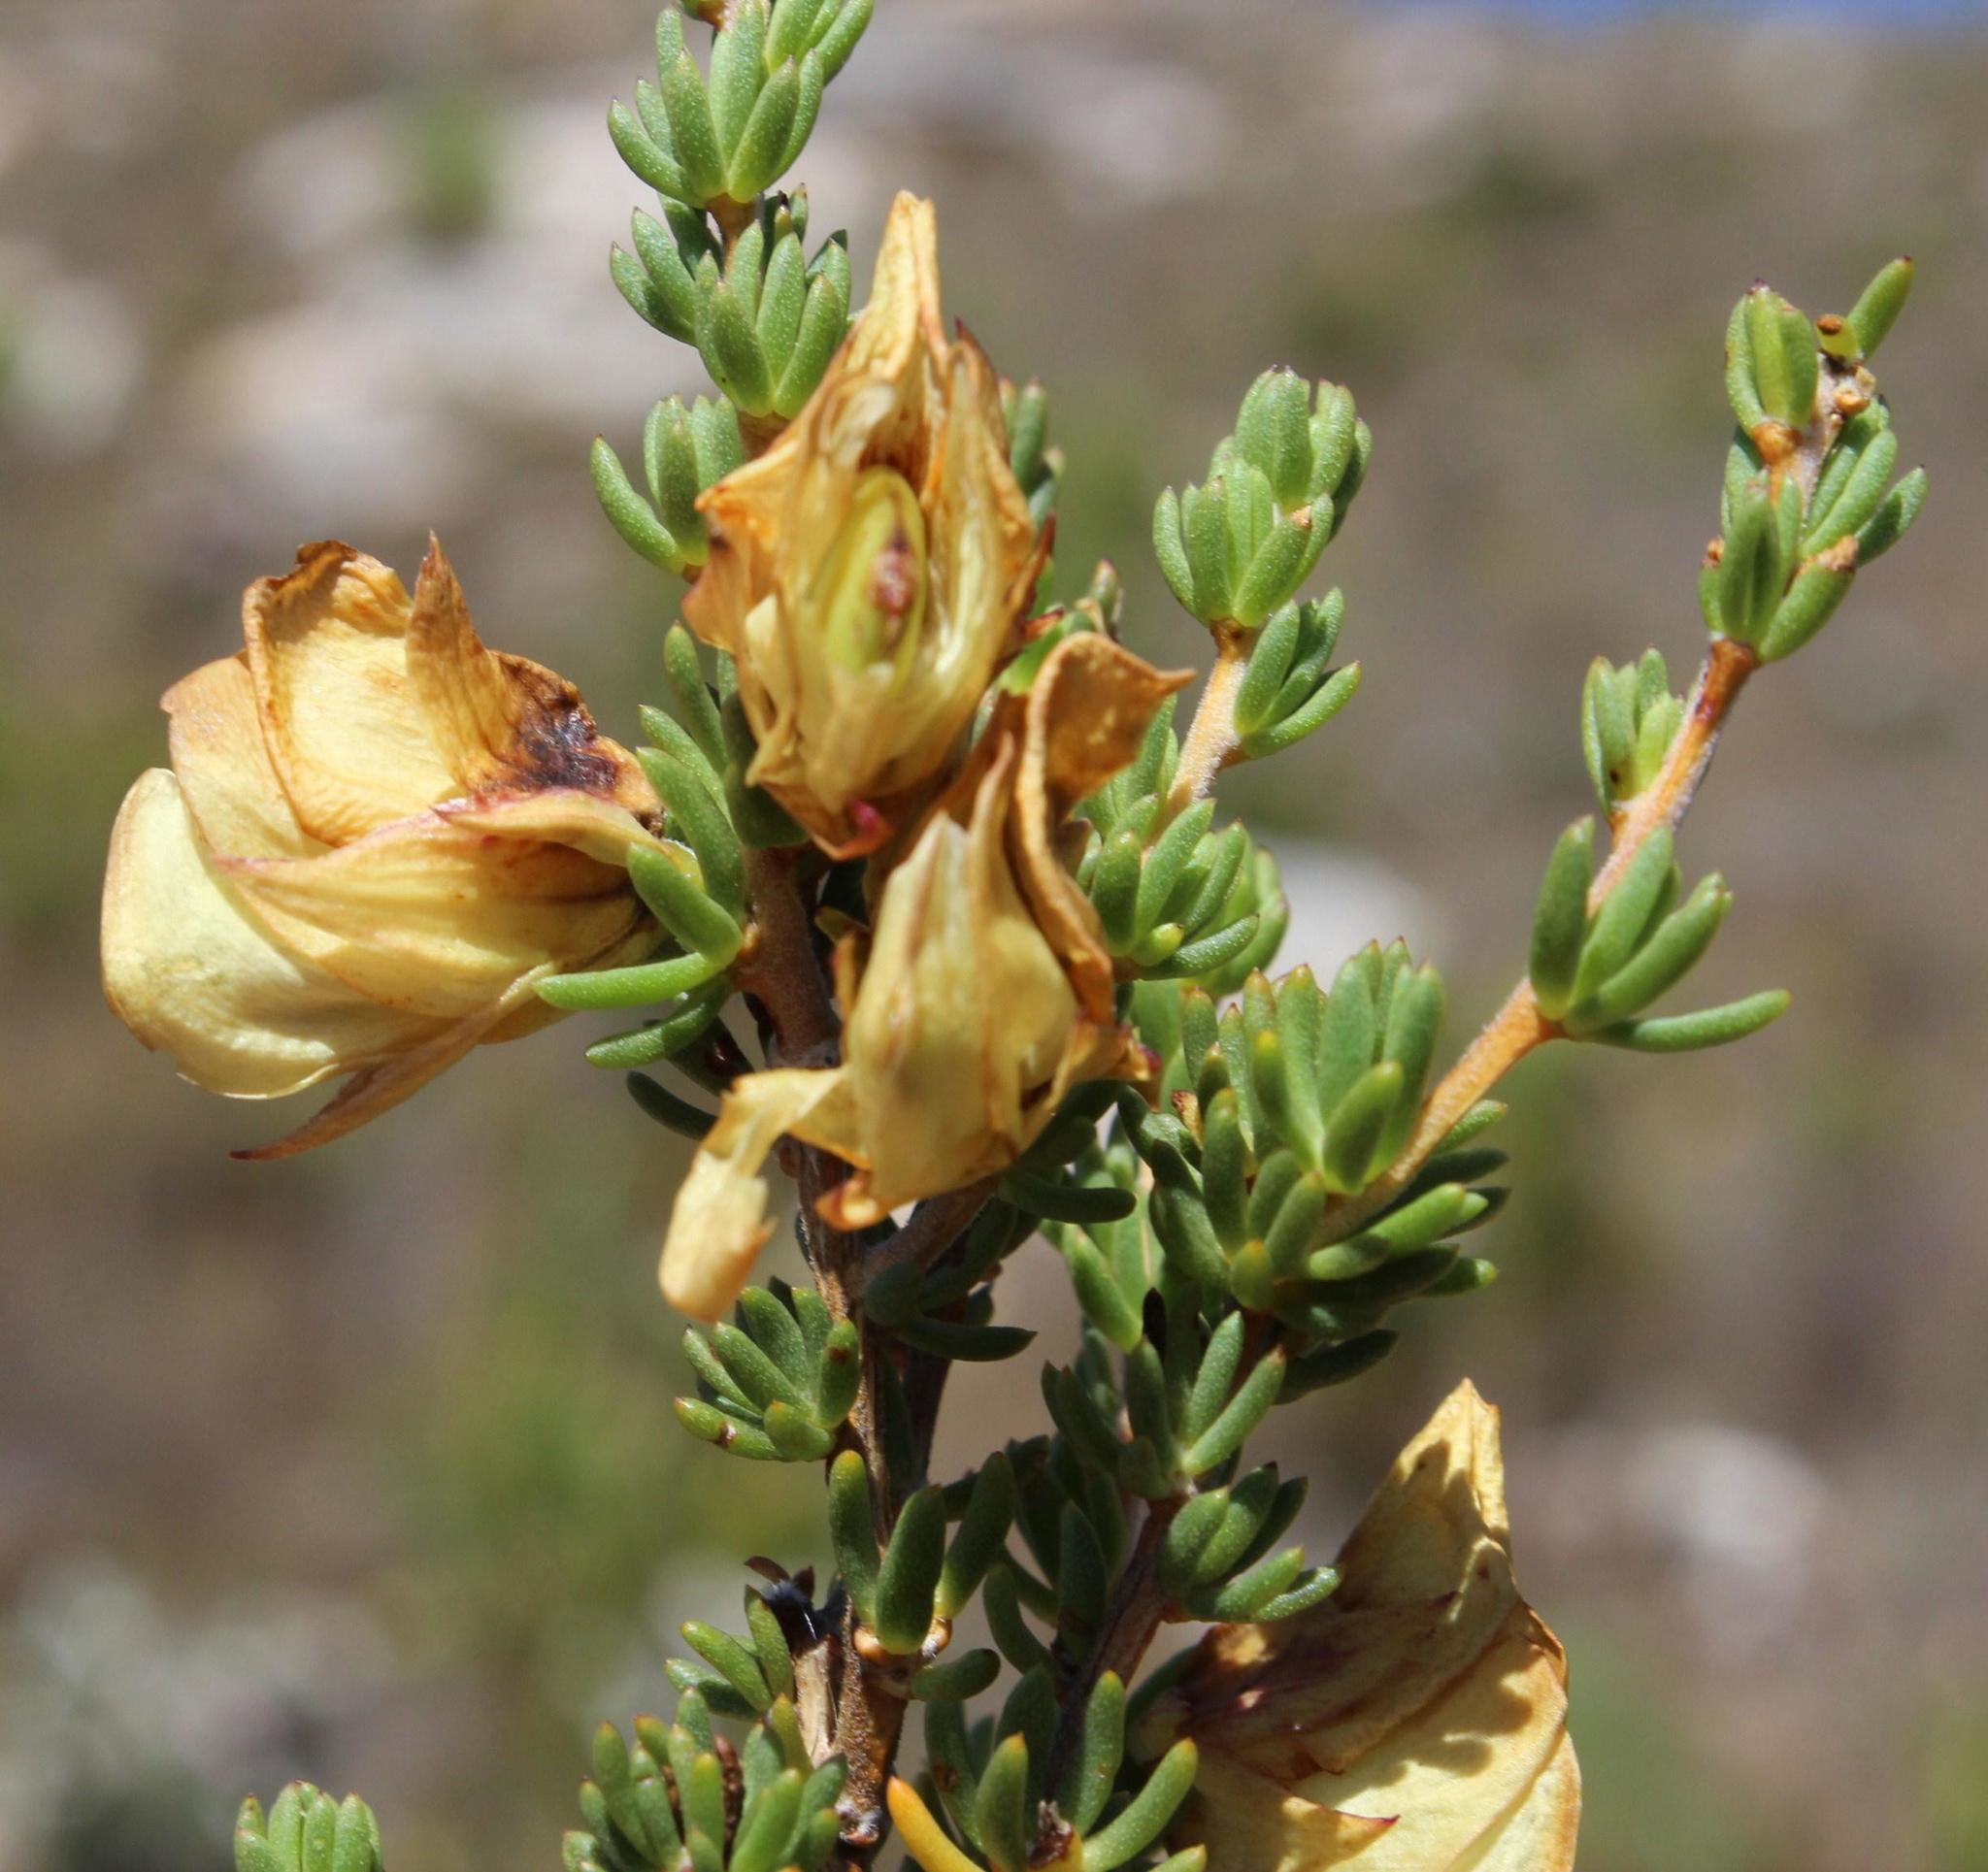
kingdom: Plantae
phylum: Tracheophyta
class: Magnoliopsida
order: Fabales
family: Fabaceae
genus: Aspalathus
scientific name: Aspalathus citrina
